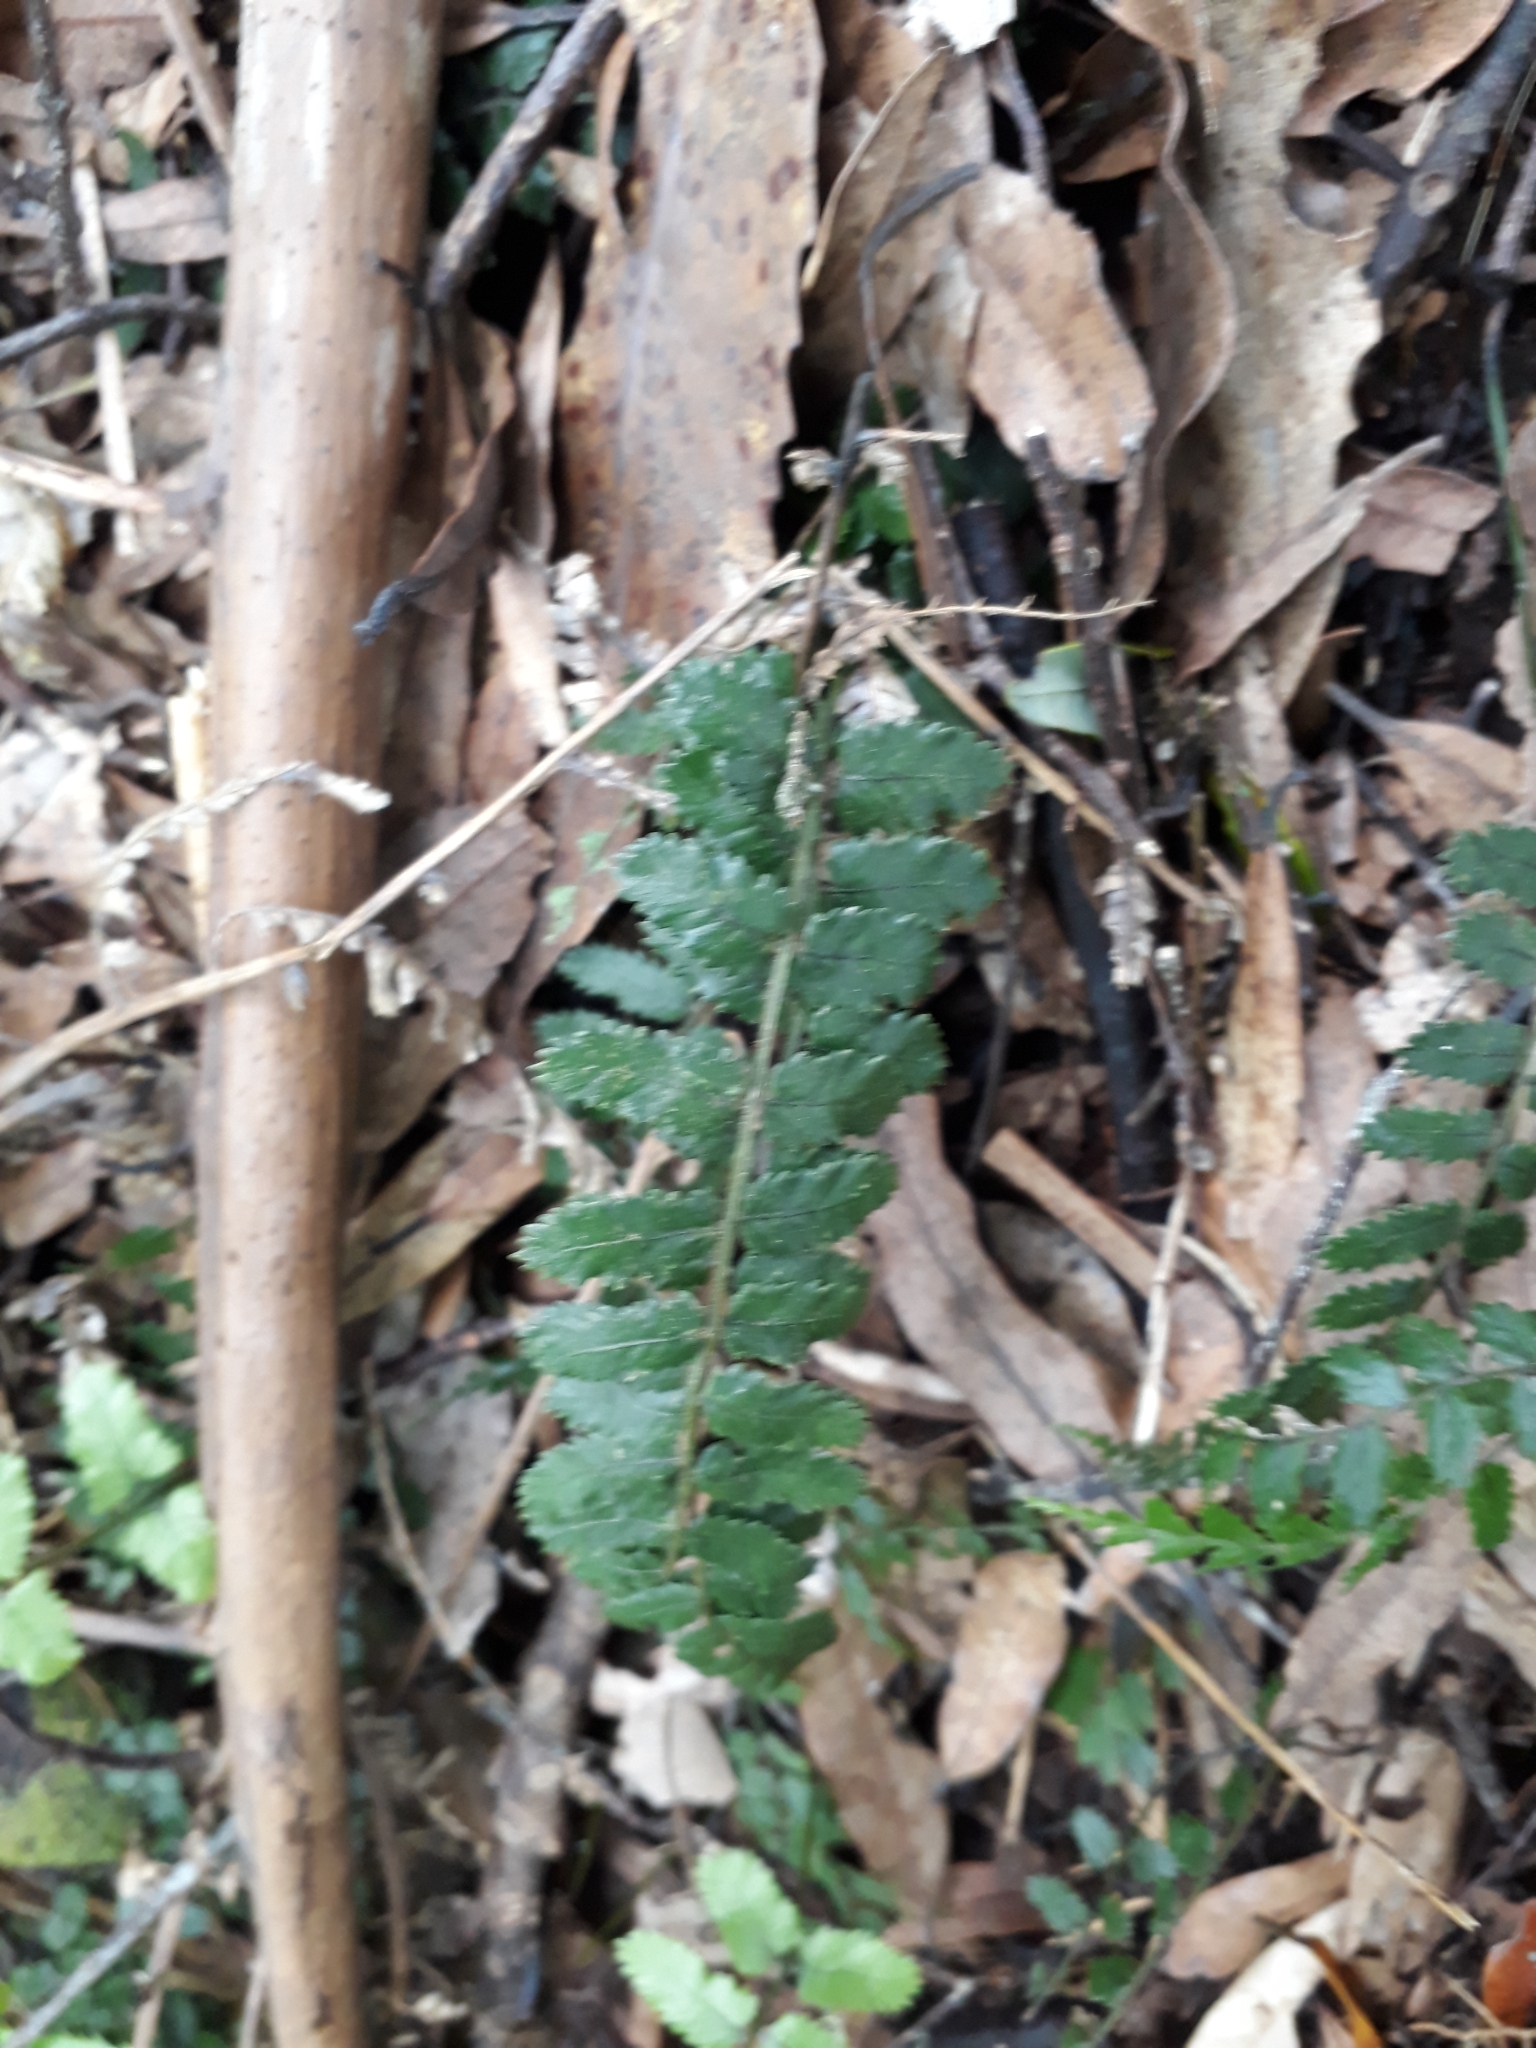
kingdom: Plantae
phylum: Tracheophyta
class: Polypodiopsida
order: Polypodiales
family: Blechnaceae
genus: Icarus
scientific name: Icarus filiformis
